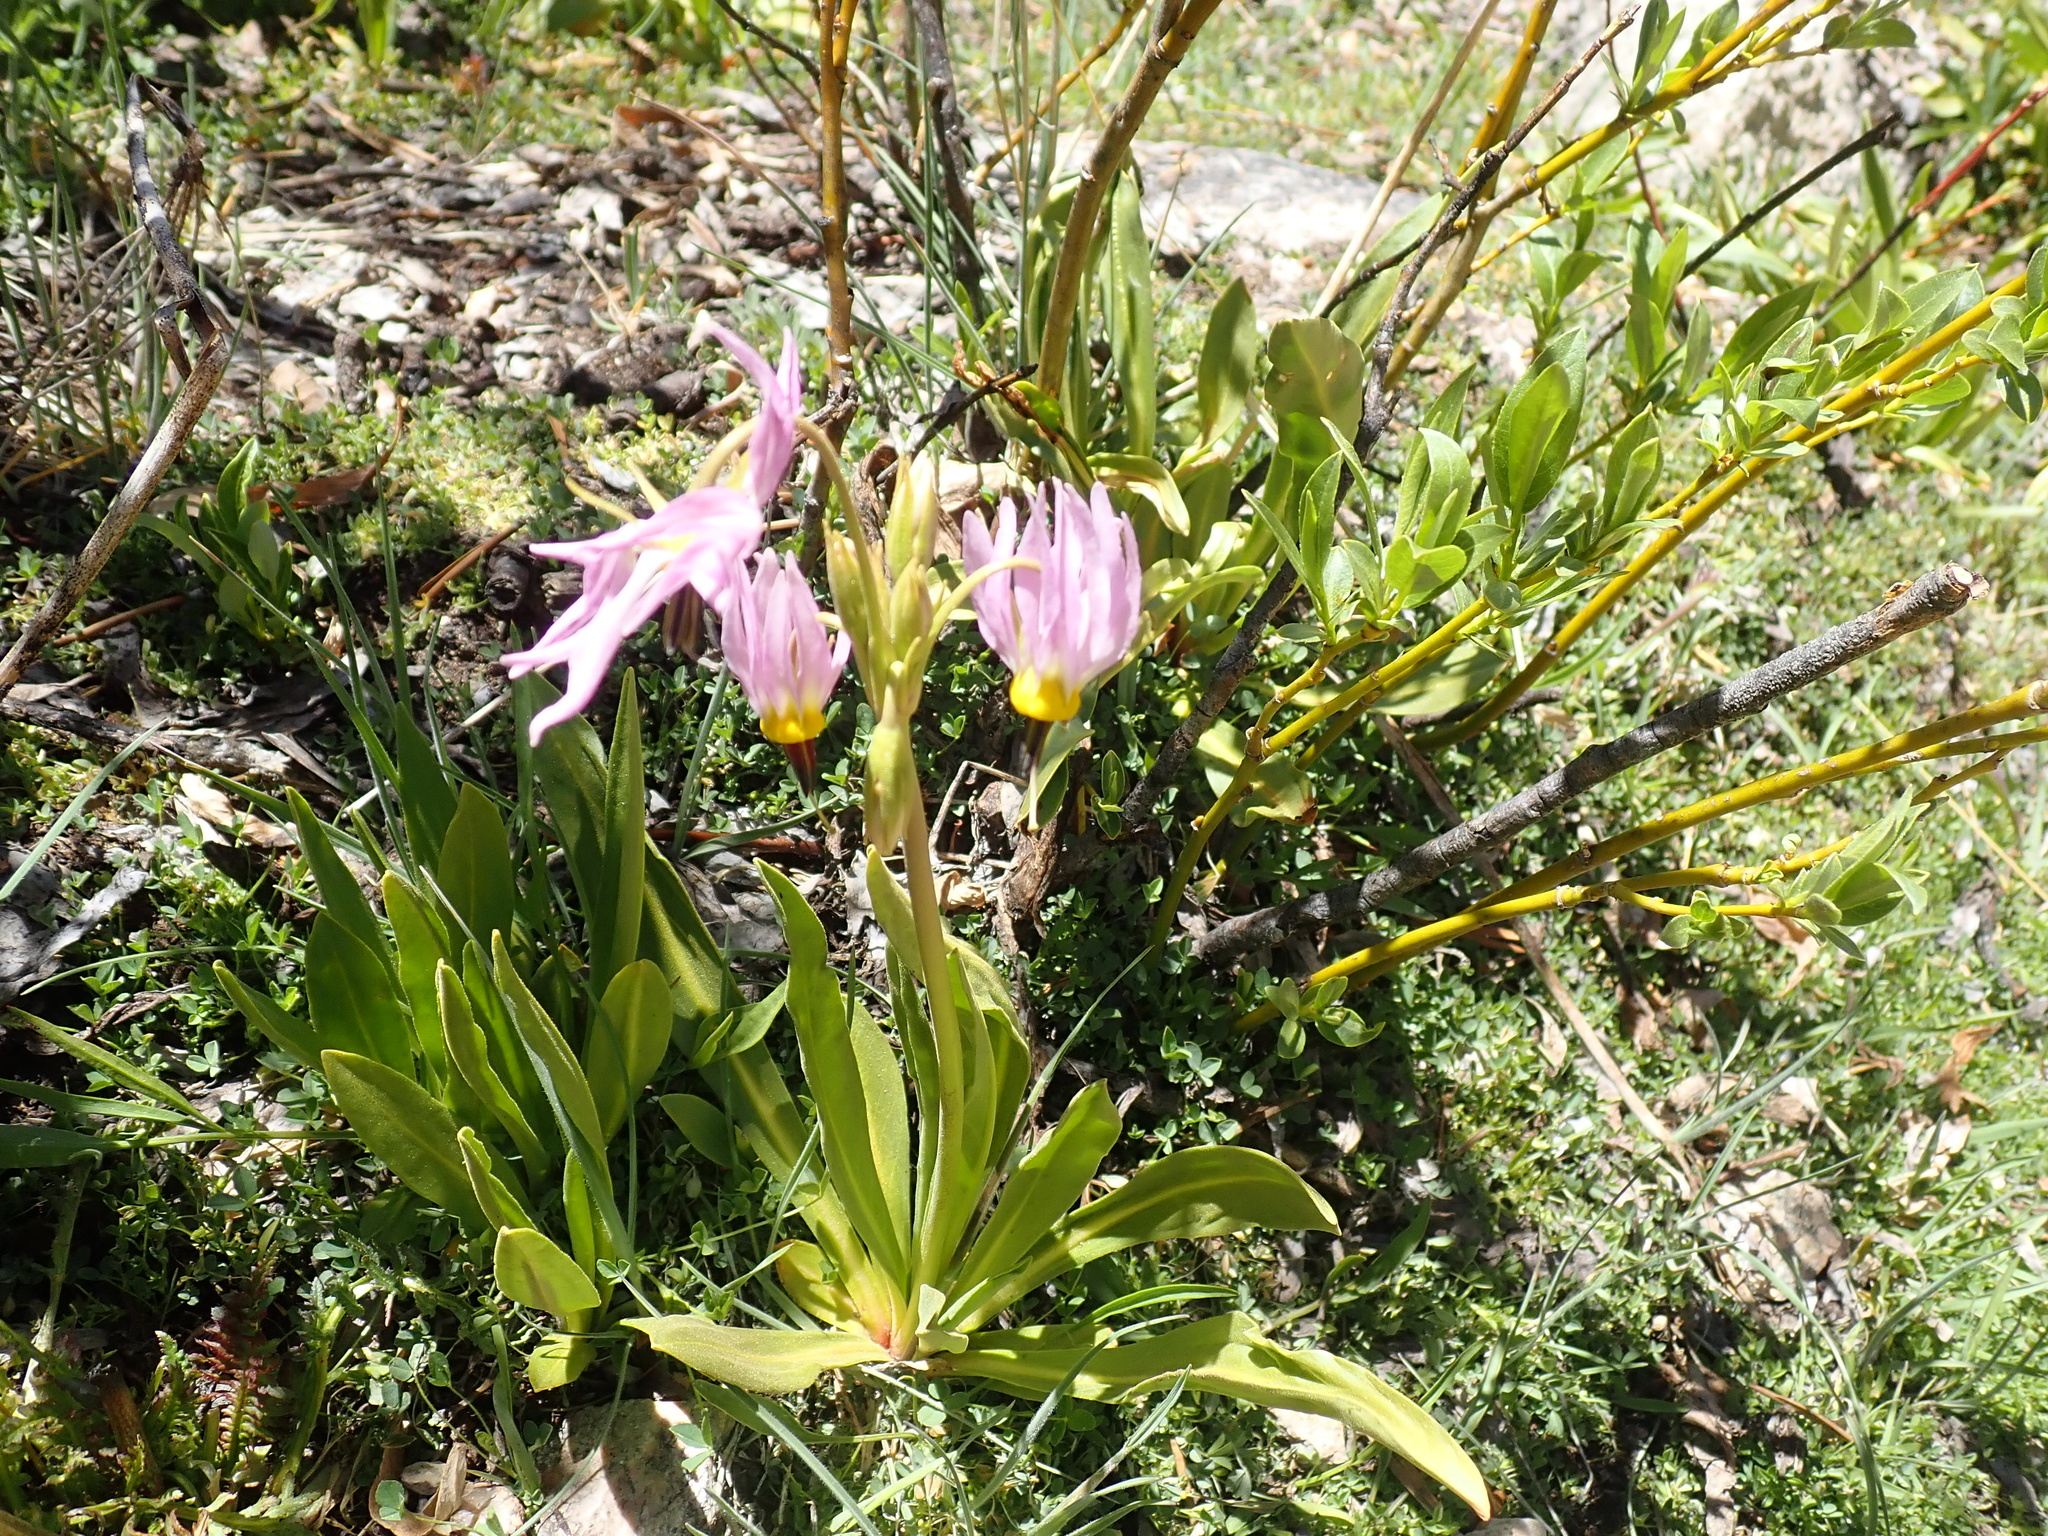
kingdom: Plantae
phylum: Tracheophyta
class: Magnoliopsida
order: Ericales
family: Primulaceae
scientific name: Primulaceae
